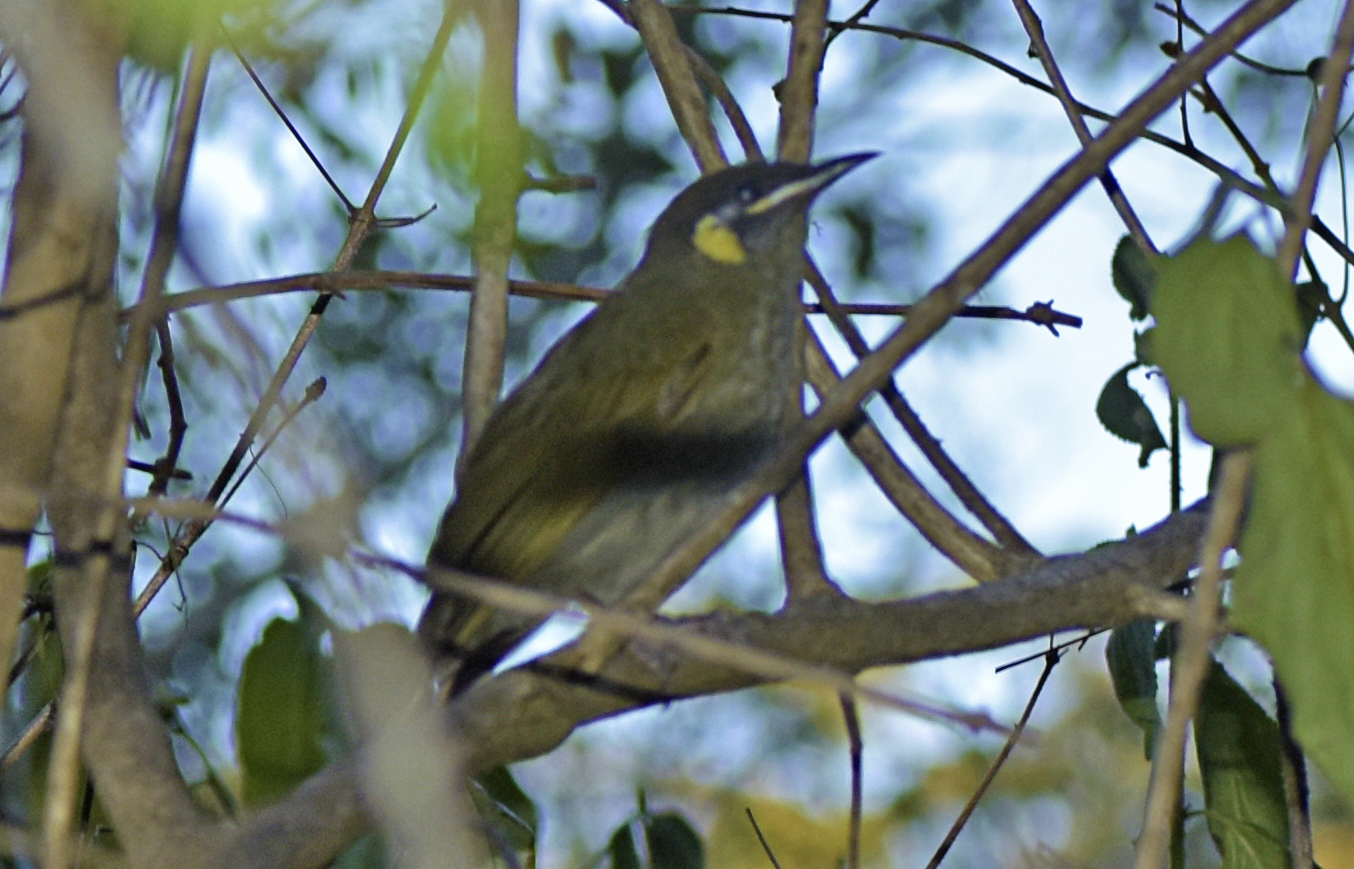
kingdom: Animalia
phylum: Chordata
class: Aves
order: Passeriformes
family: Meliphagidae
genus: Meliphaga
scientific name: Meliphaga lewinii
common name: Lewin's honeyeater
